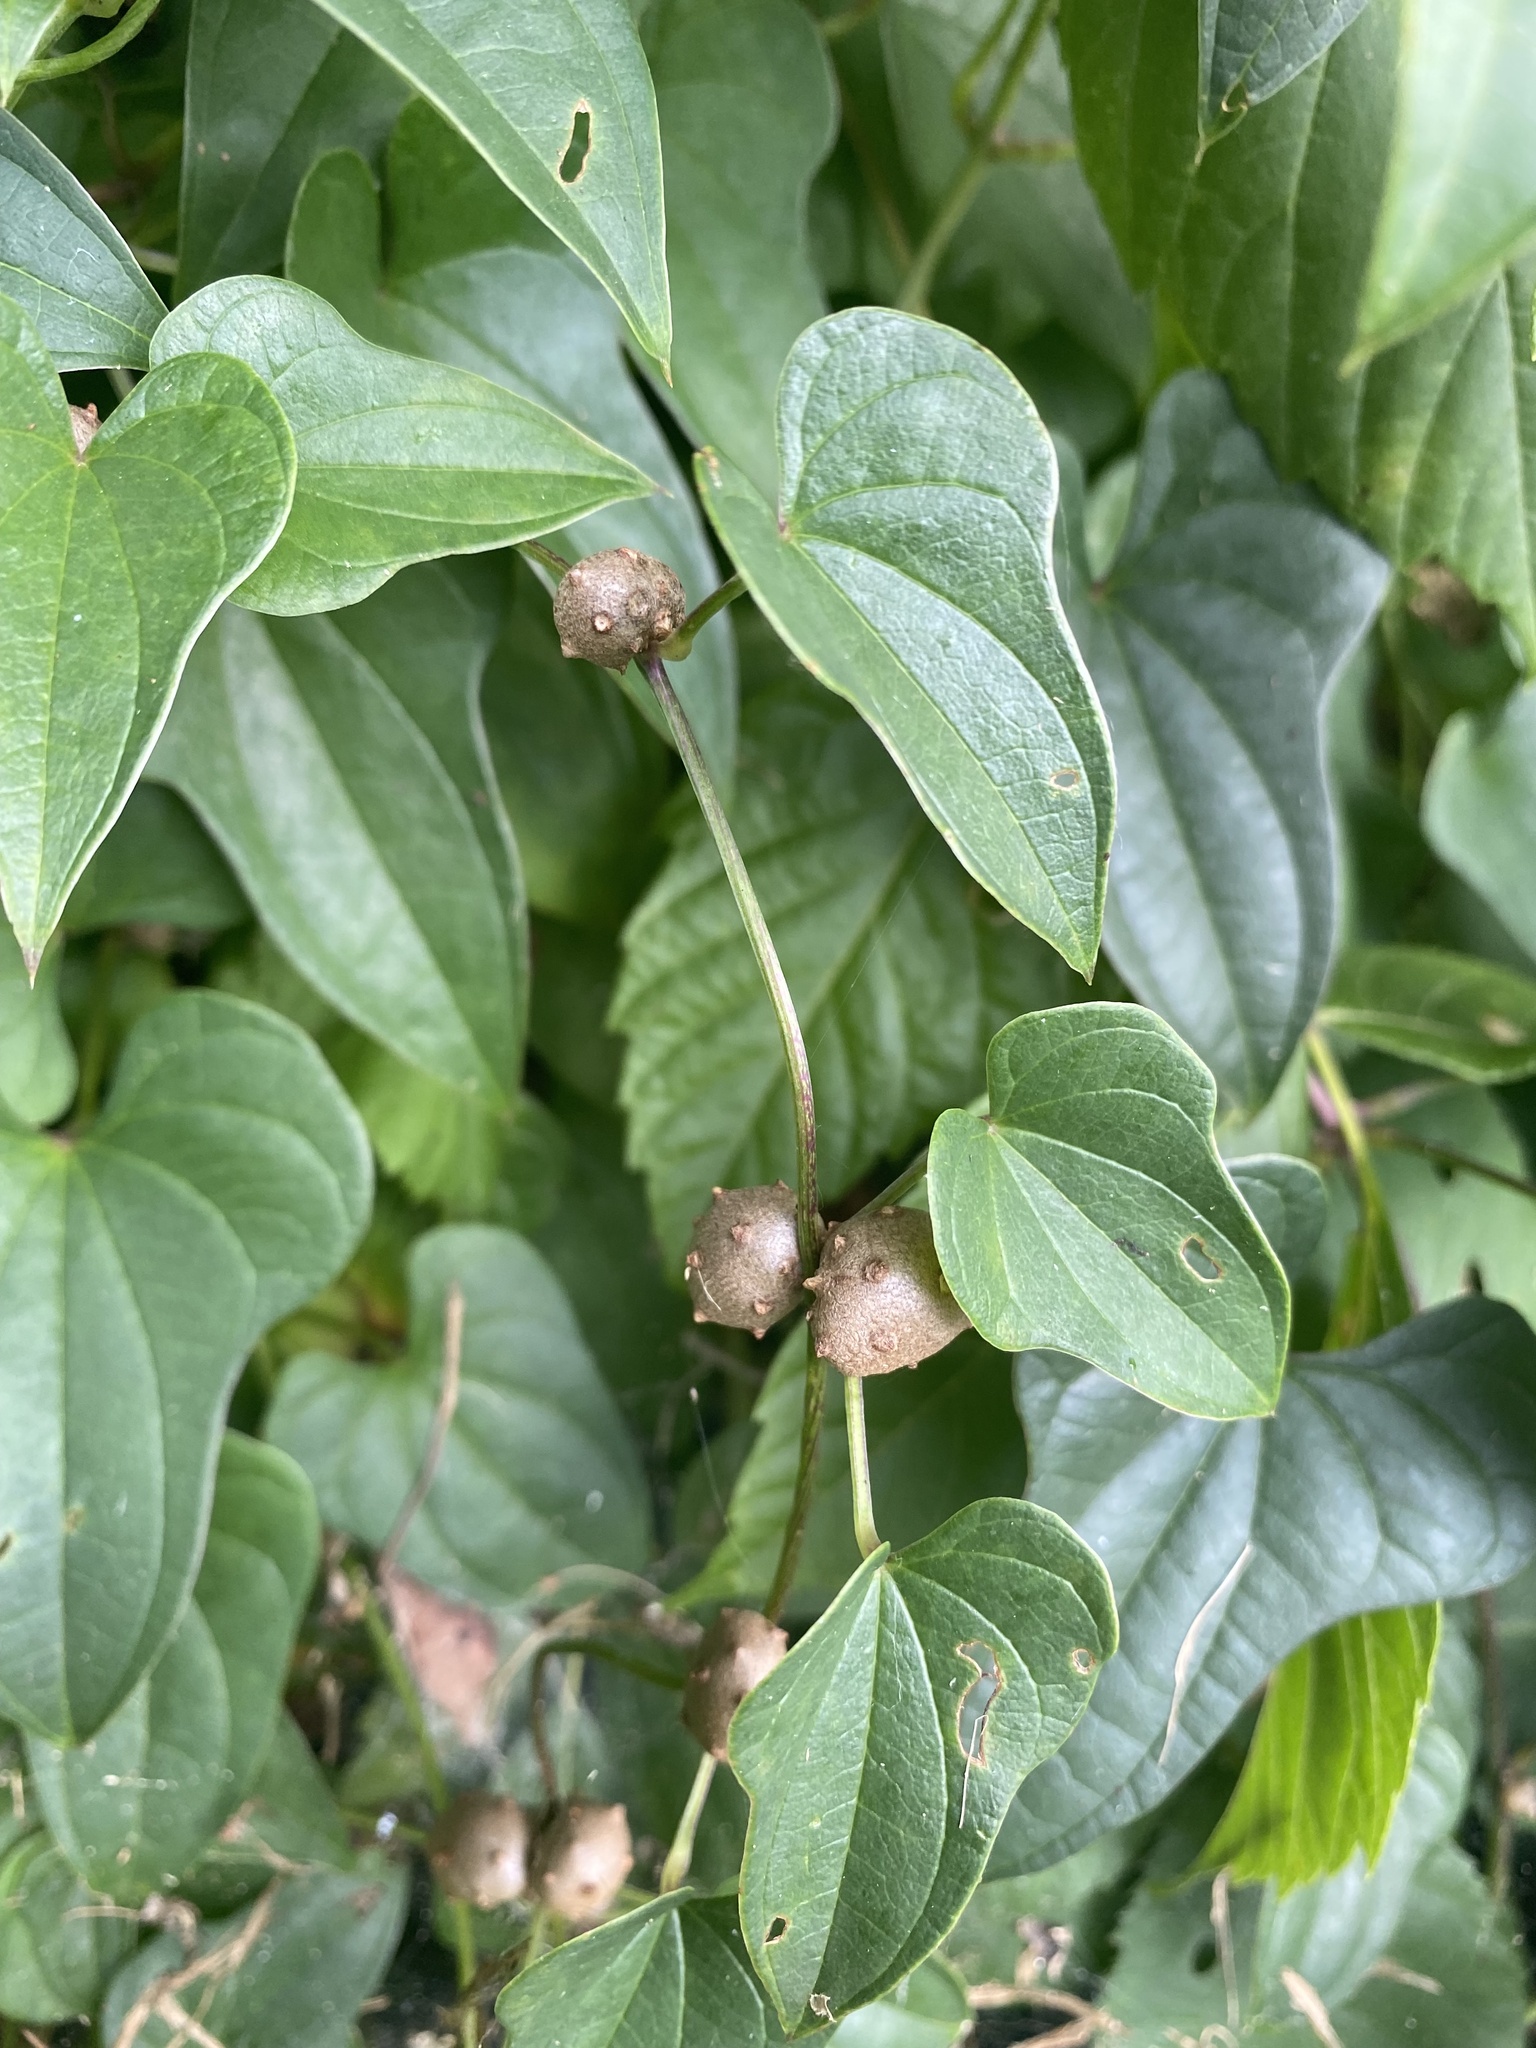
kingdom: Plantae
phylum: Tracheophyta
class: Liliopsida
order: Dioscoreales
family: Dioscoreaceae
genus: Dioscorea
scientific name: Dioscorea polystachya
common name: Chinese yam
